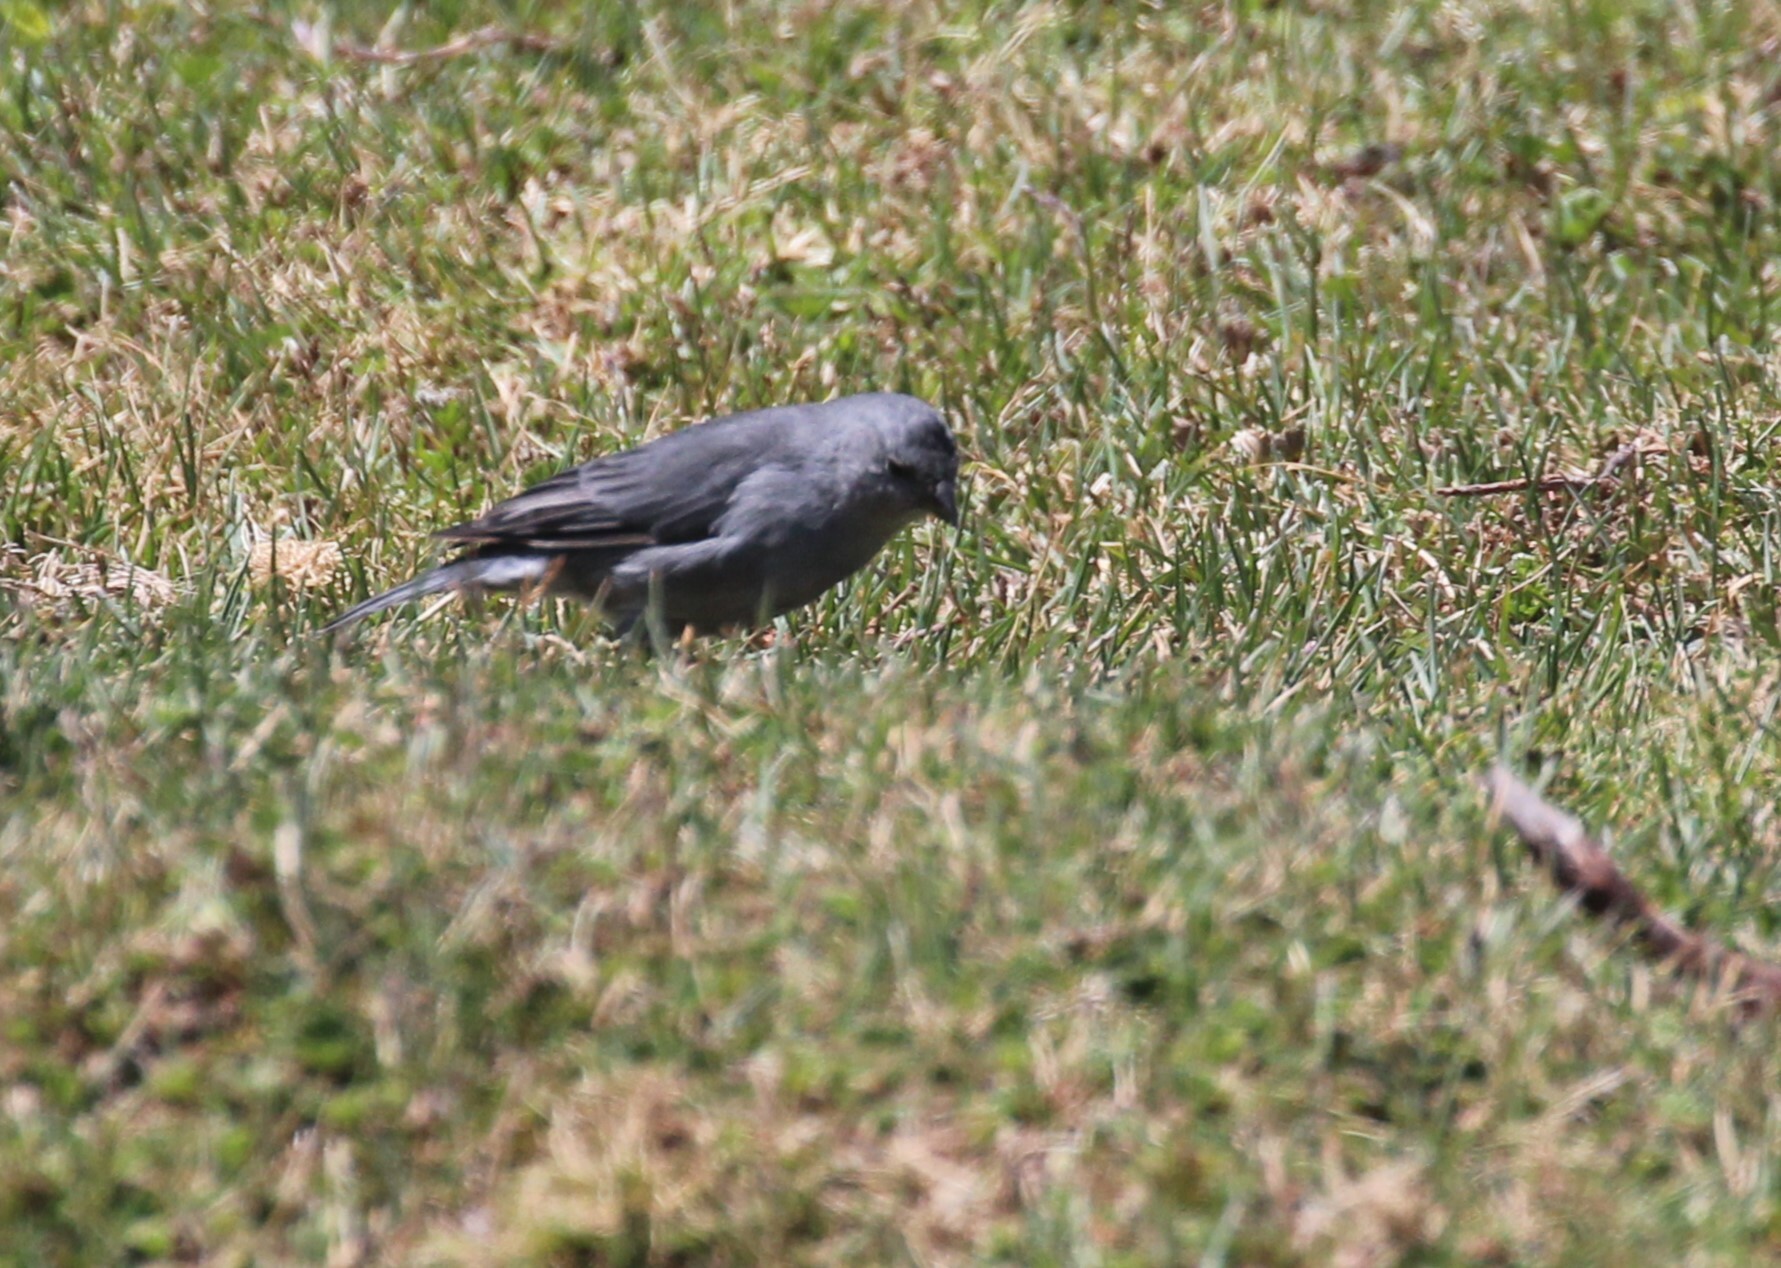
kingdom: Animalia
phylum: Chordata
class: Aves
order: Passeriformes
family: Thraupidae
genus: Geospizopsis
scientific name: Geospizopsis unicolor
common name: Plumbeous sierra-finch
